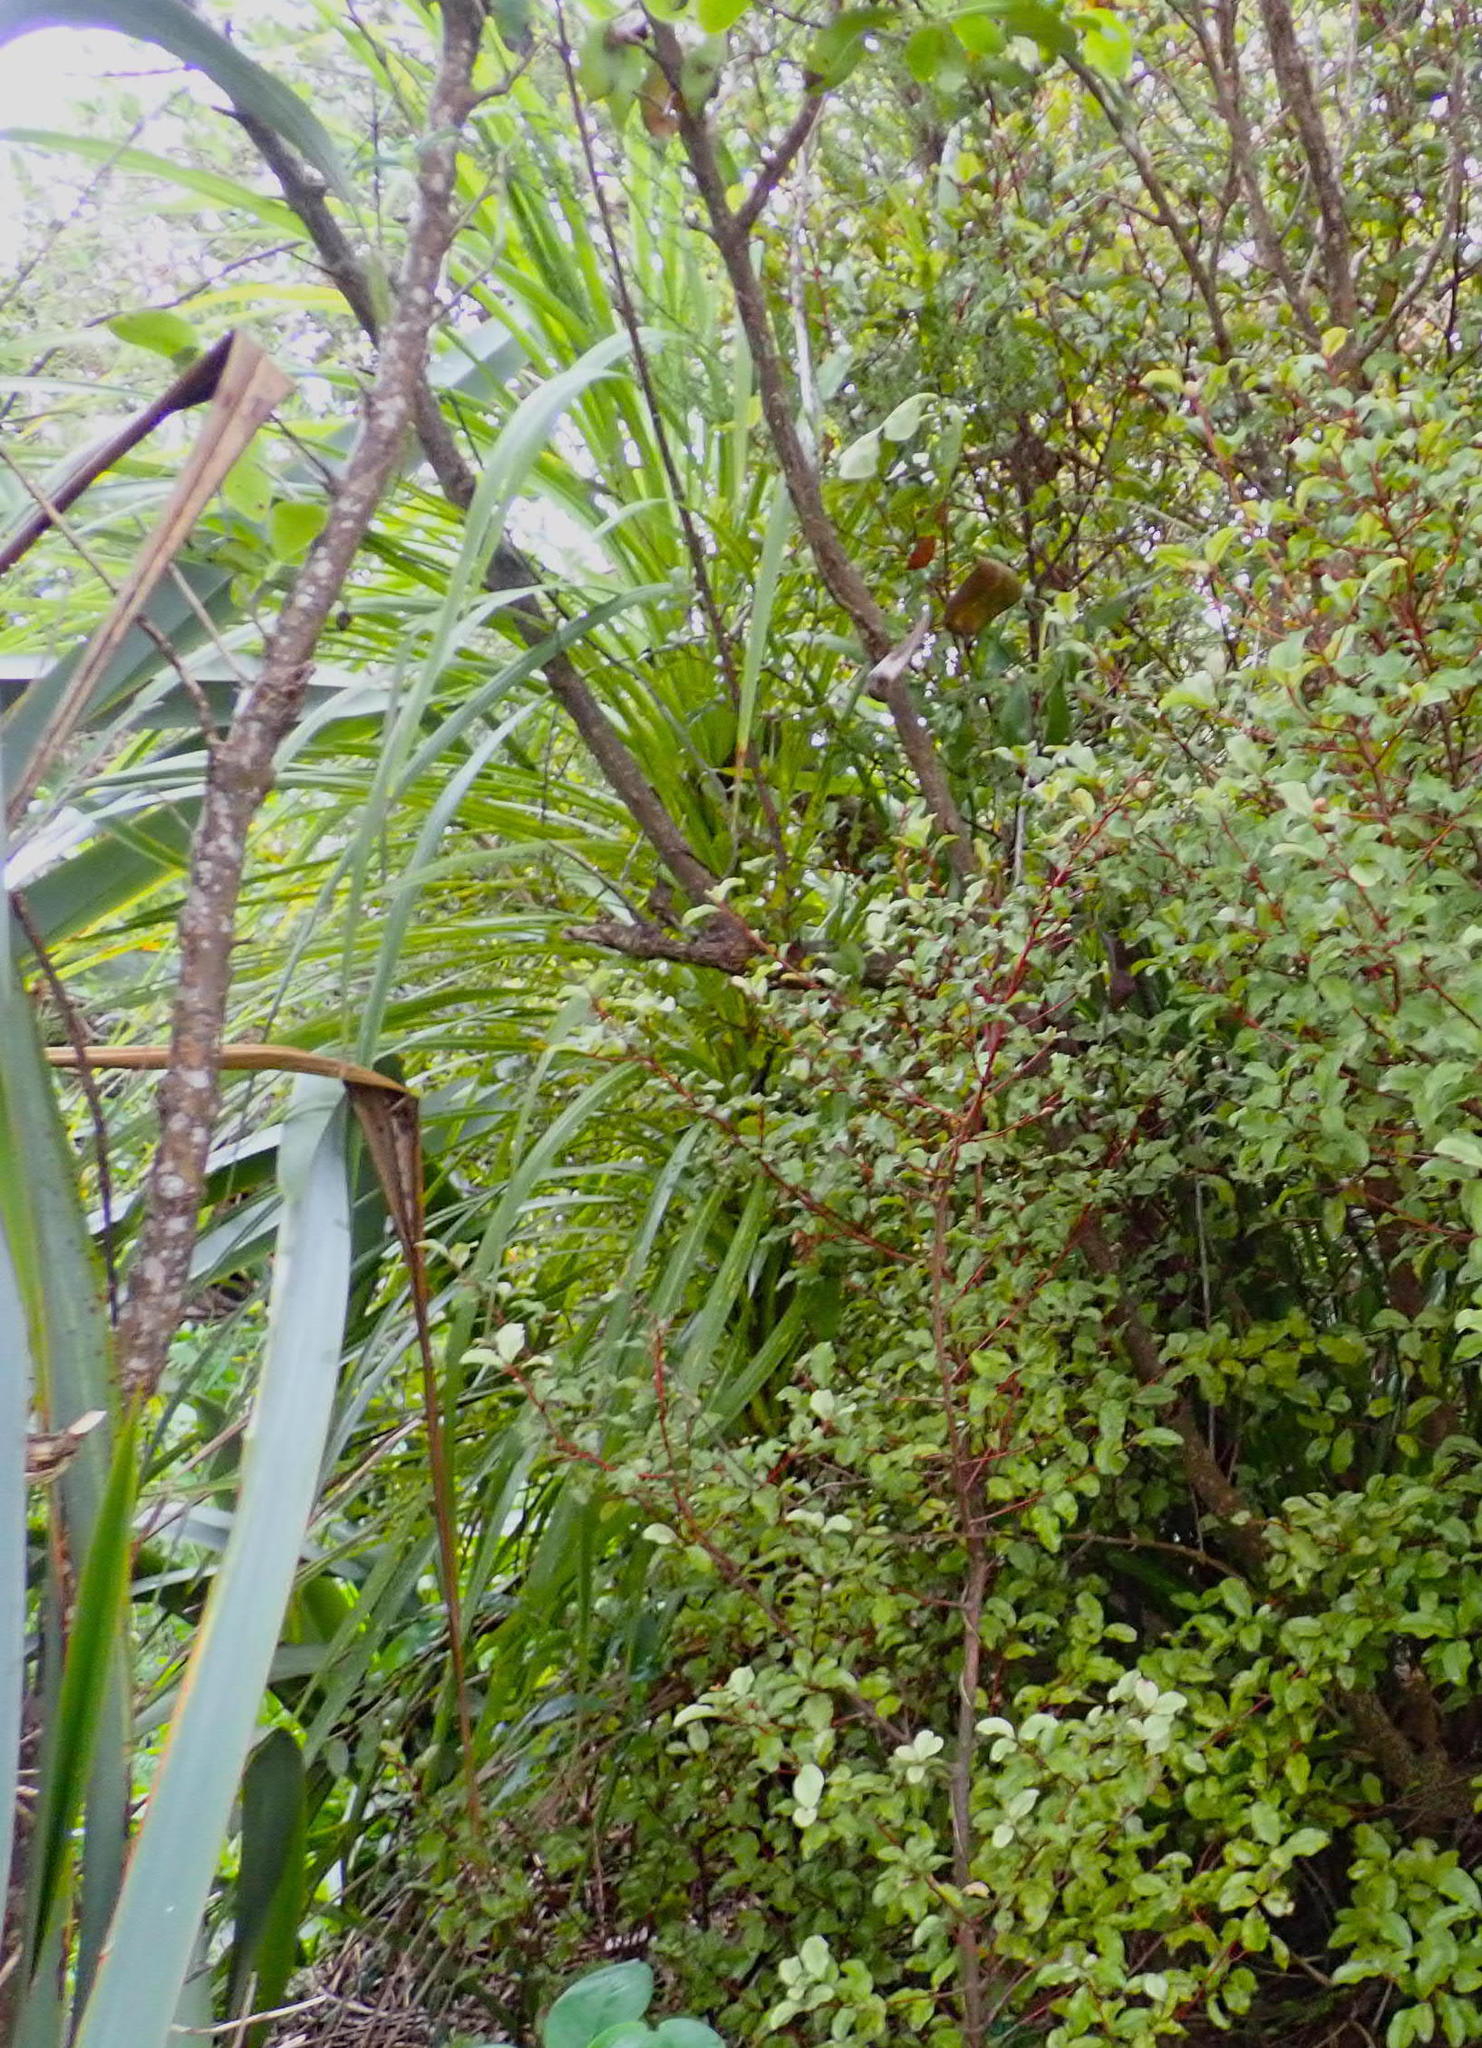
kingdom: Plantae
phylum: Tracheophyta
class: Liliopsida
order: Asparagales
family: Asparagaceae
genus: Cordyline
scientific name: Cordyline australis
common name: Cabbage-palm
